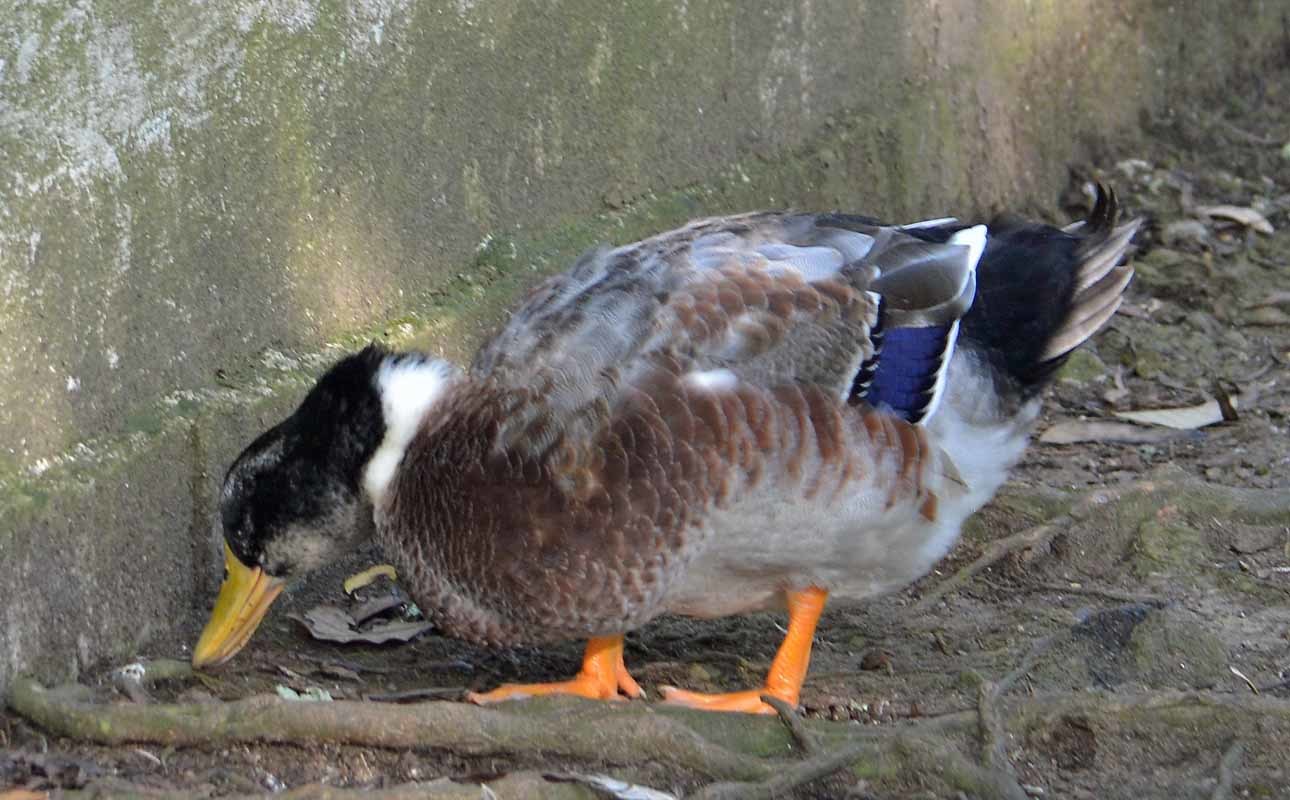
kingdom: Animalia
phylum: Chordata
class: Aves
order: Anseriformes
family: Anatidae
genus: Anas
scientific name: Anas platyrhynchos
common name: Mallard
